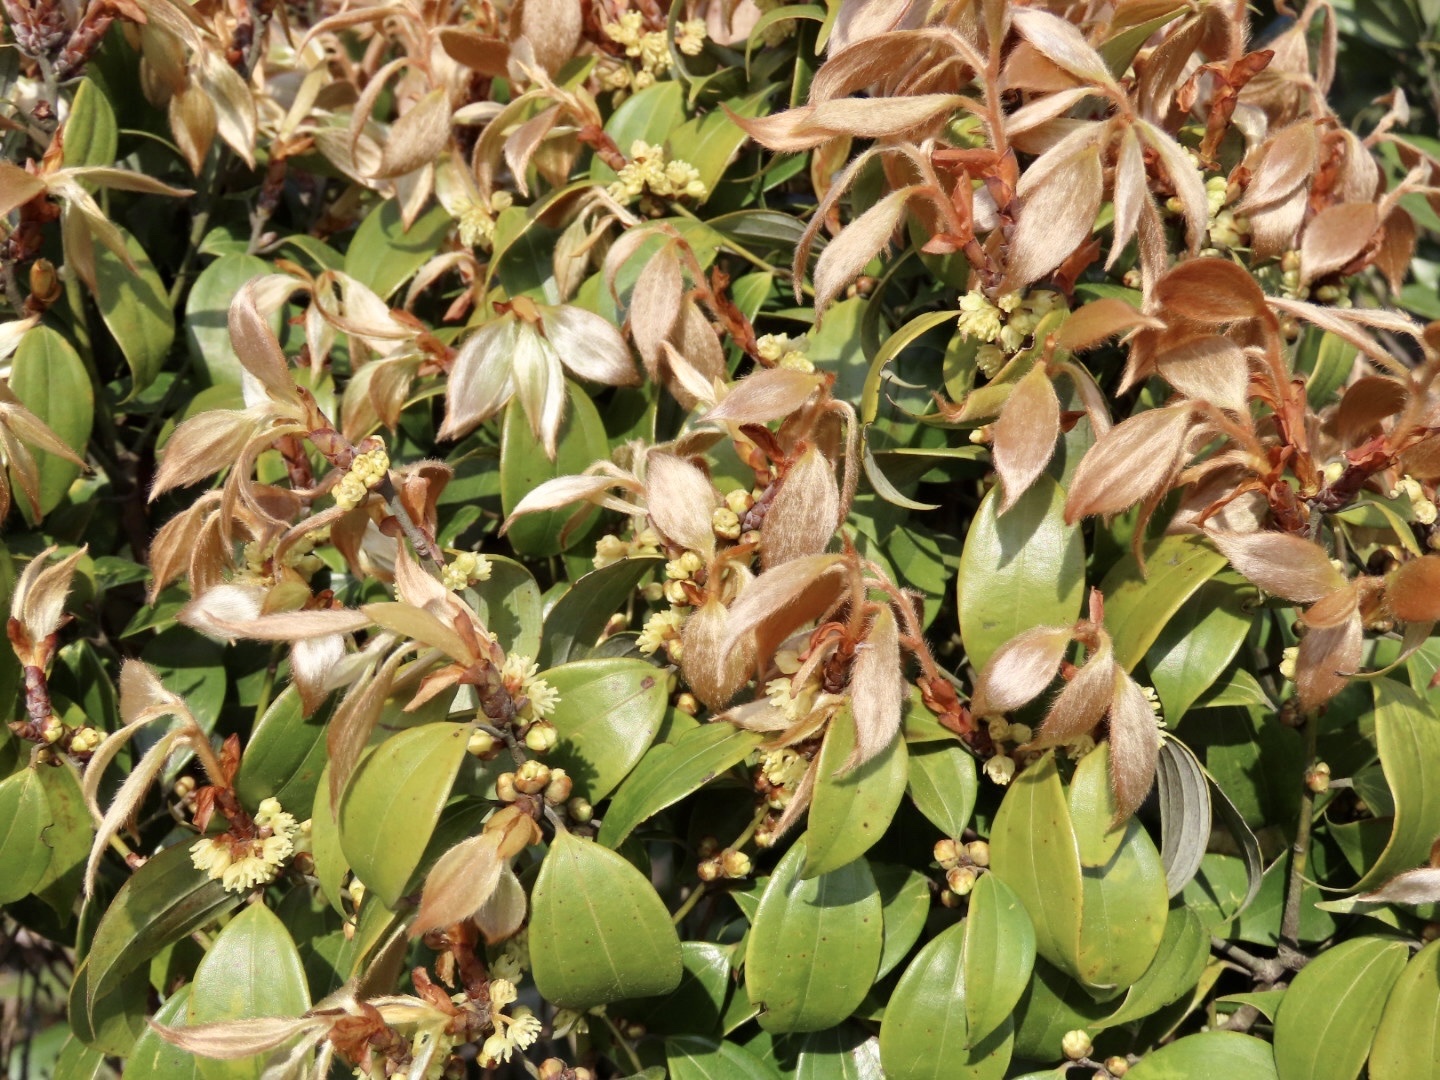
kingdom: Plantae
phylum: Tracheophyta
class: Magnoliopsida
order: Laurales
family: Lauraceae
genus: Lindera
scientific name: Lindera aggregata
